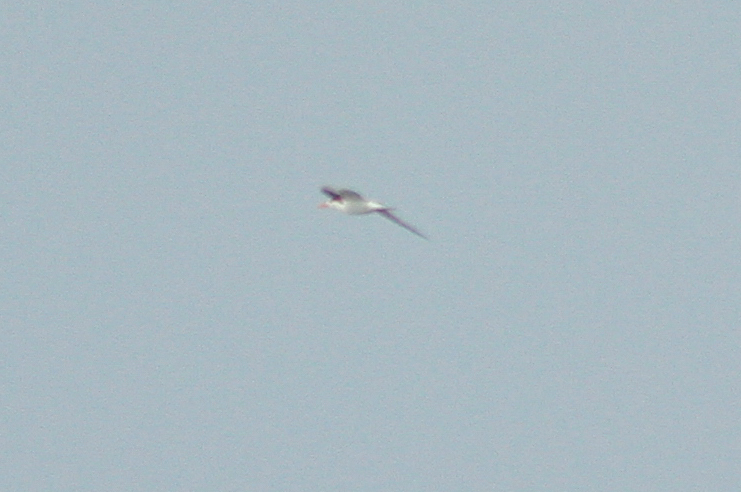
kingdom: Animalia
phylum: Chordata
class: Aves
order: Charadriiformes
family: Laridae
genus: Thalasseus
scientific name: Thalasseus maximus
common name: Royal tern
